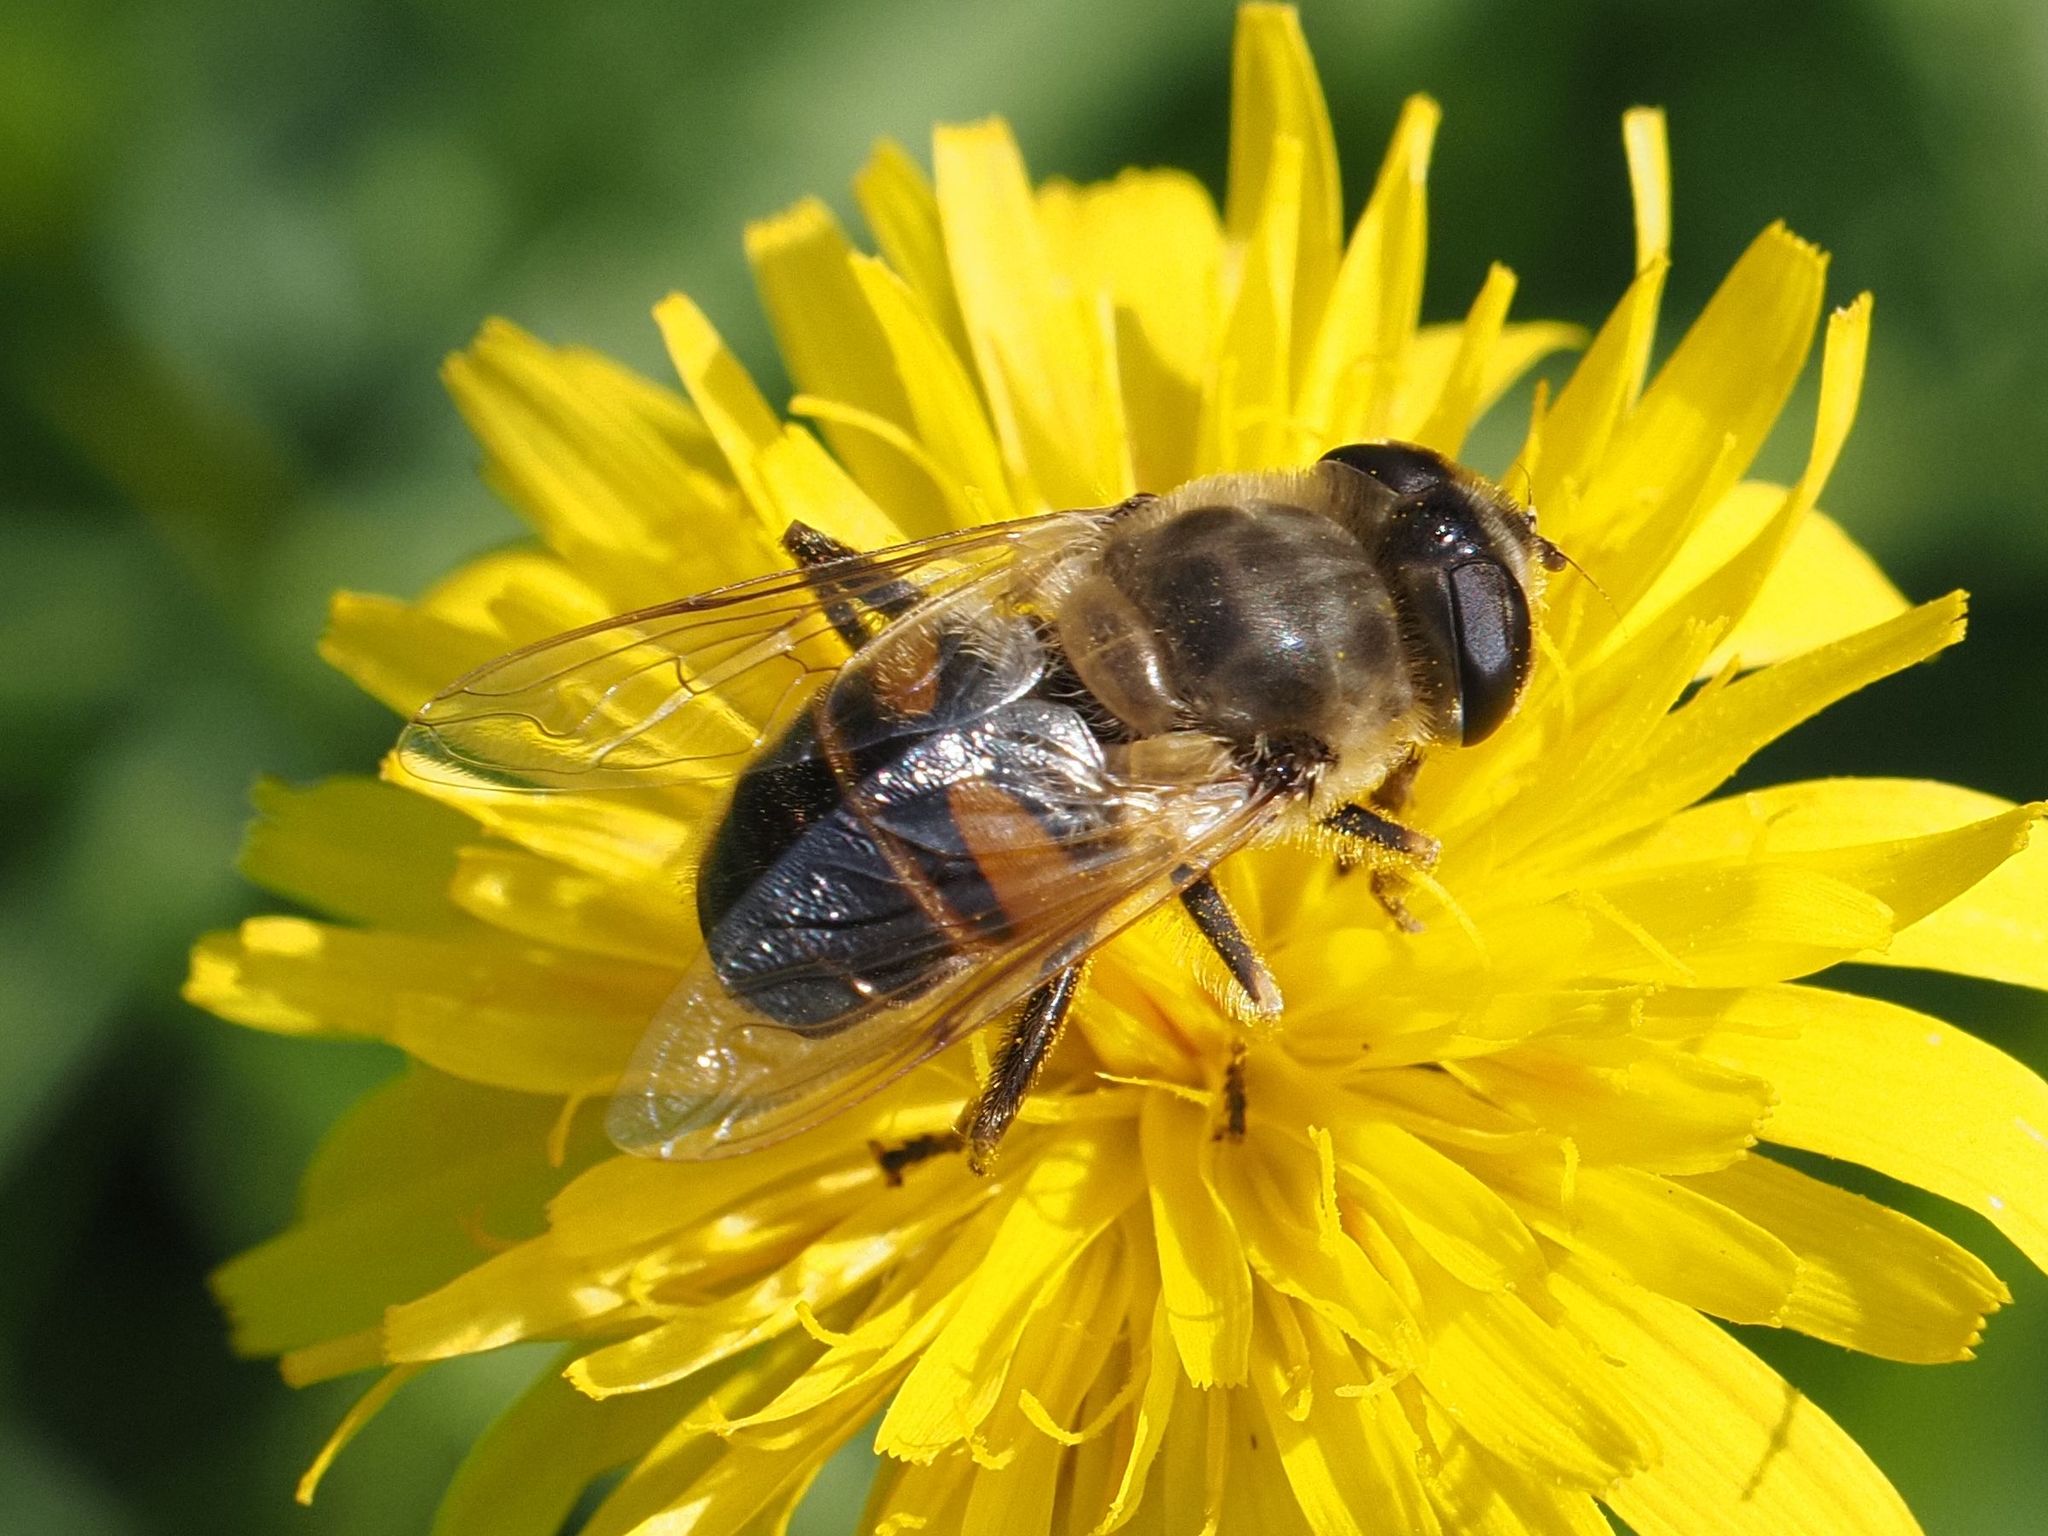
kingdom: Animalia
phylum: Arthropoda
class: Insecta
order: Diptera
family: Syrphidae
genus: Eristalis
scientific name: Eristalis tenax
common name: Drone fly
